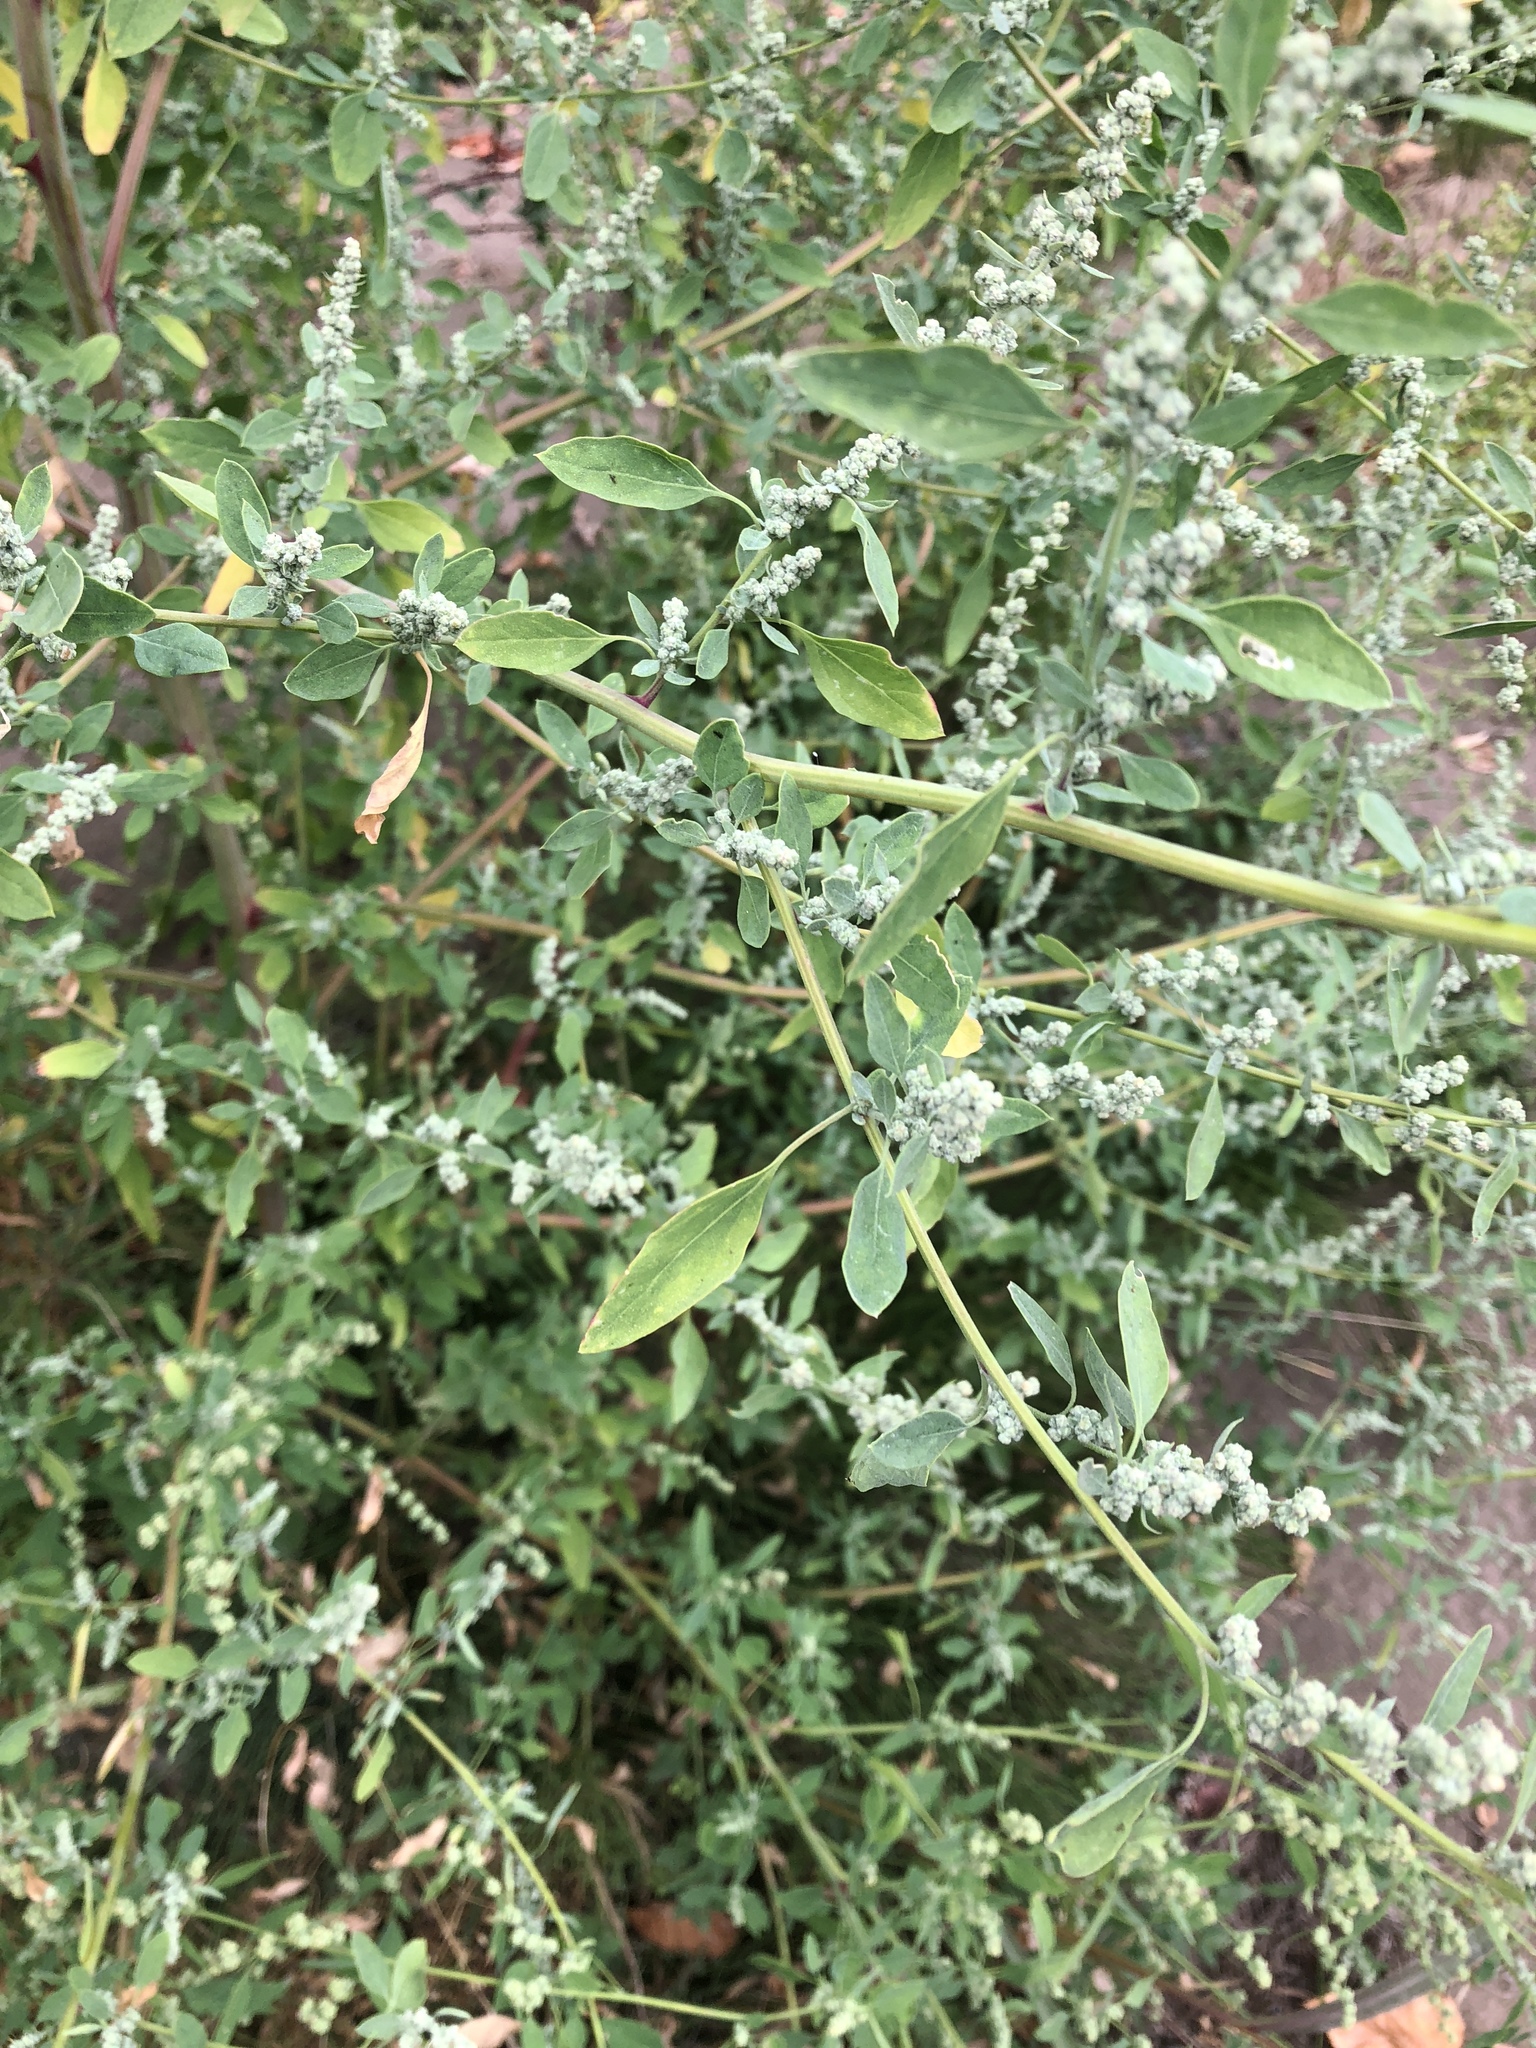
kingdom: Plantae
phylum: Tracheophyta
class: Magnoliopsida
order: Caryophyllales
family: Amaranthaceae
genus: Chenopodium
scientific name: Chenopodium album
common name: Fat-hen
